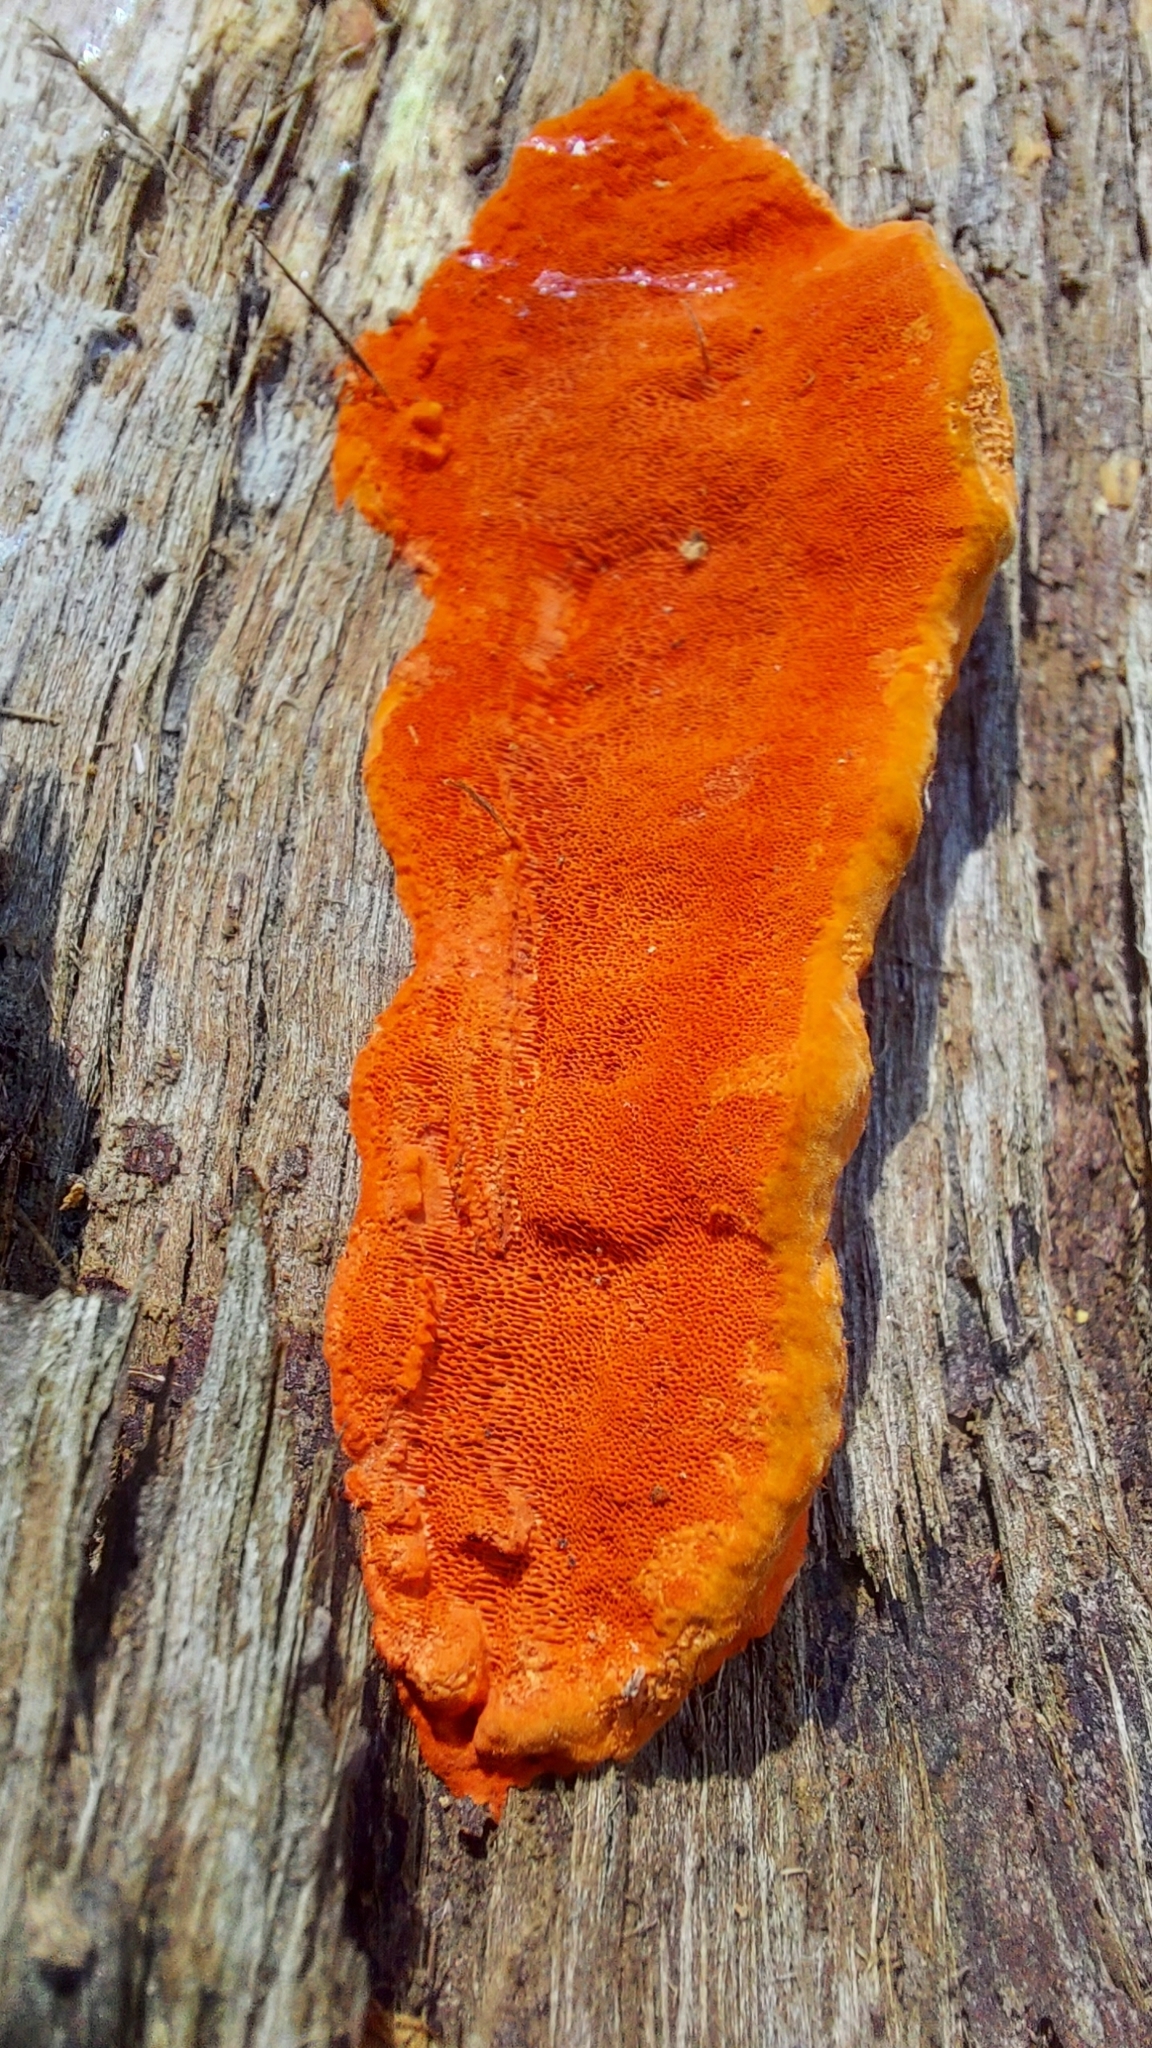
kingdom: Fungi
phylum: Basidiomycota
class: Agaricomycetes
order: Polyporales
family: Polyporaceae
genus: Trametes
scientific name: Trametes coccinea
